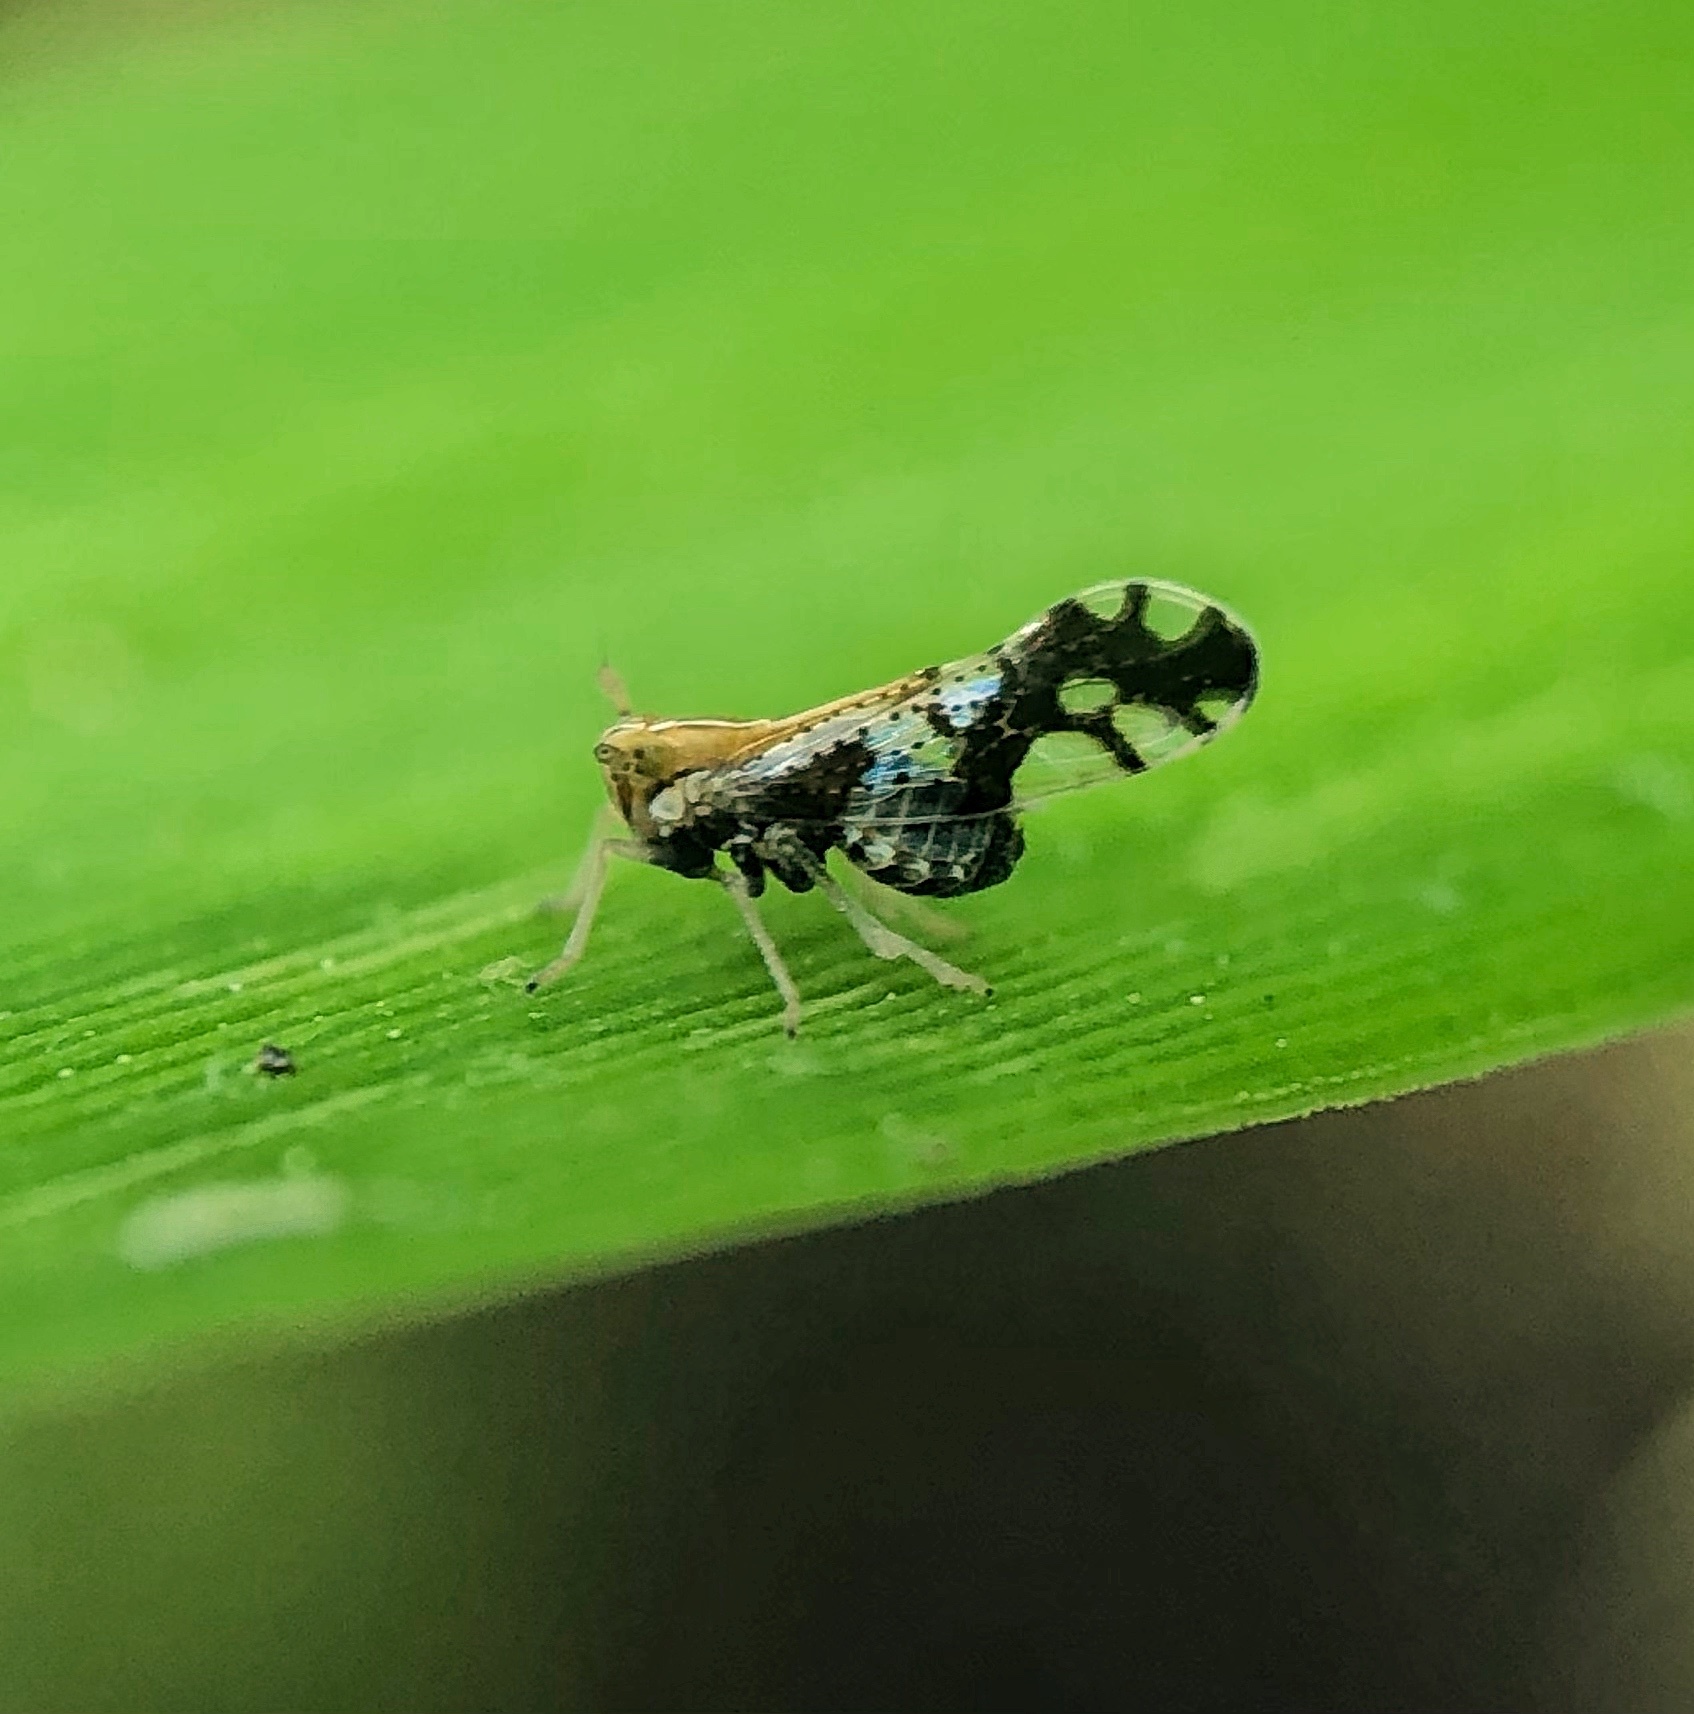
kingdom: Animalia
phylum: Arthropoda
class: Insecta
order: Hemiptera
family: Delphacidae
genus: Liburniella
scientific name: Liburniella ornata
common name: Ornate planthopper
